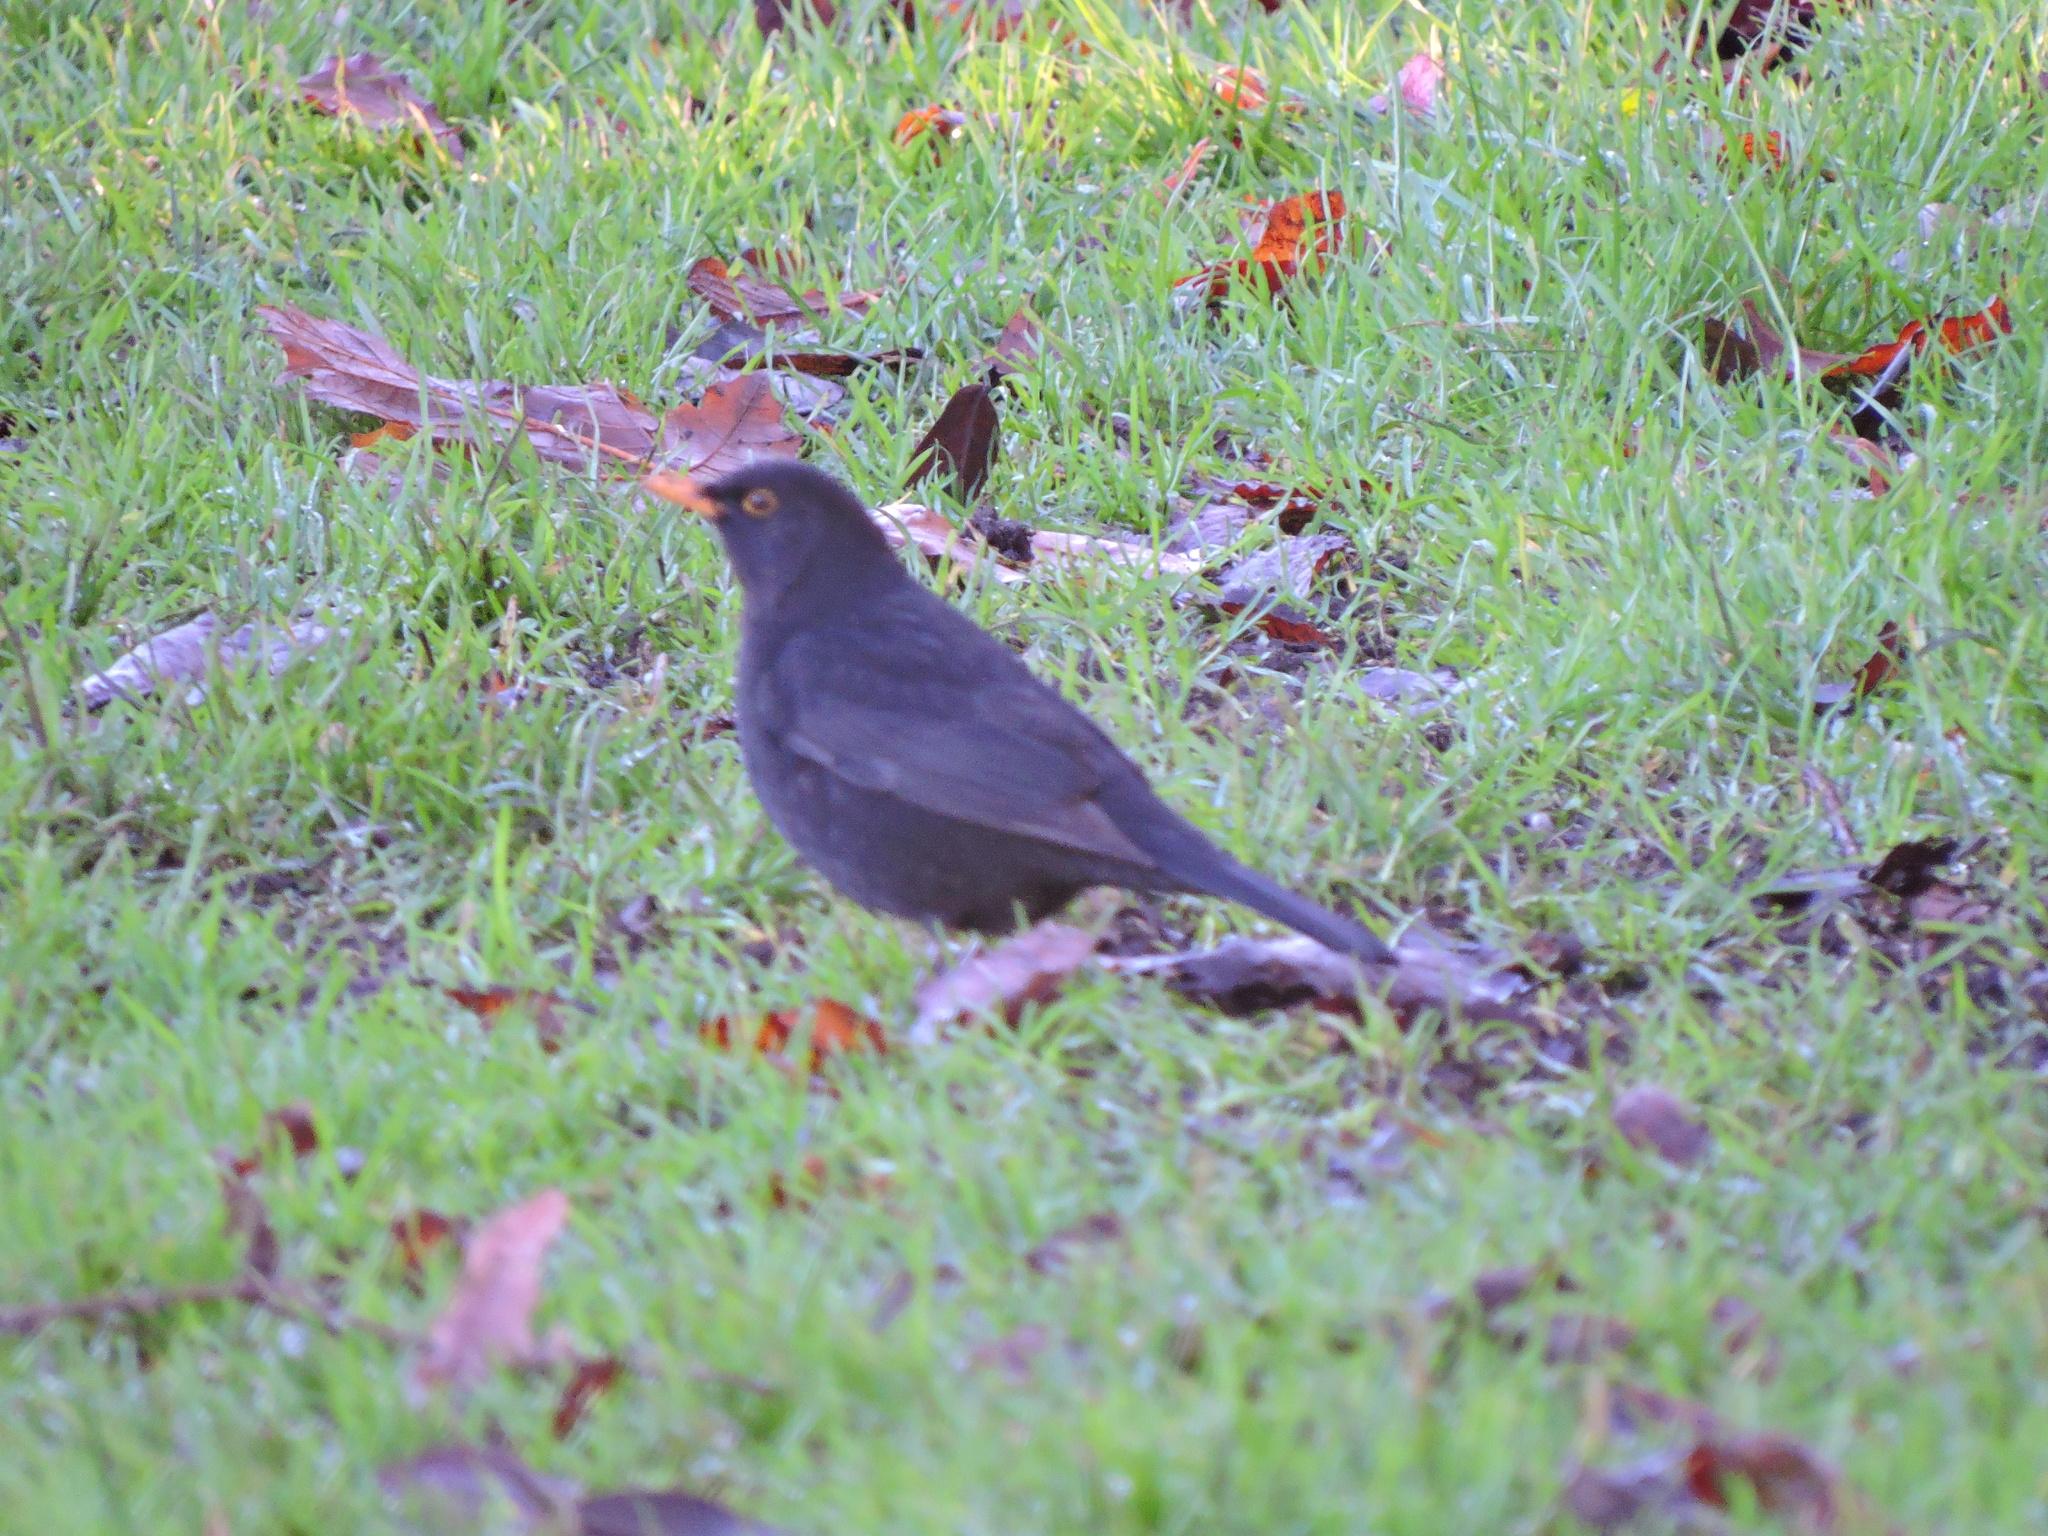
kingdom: Animalia
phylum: Chordata
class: Aves
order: Passeriformes
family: Turdidae
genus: Turdus
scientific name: Turdus merula
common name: Common blackbird
